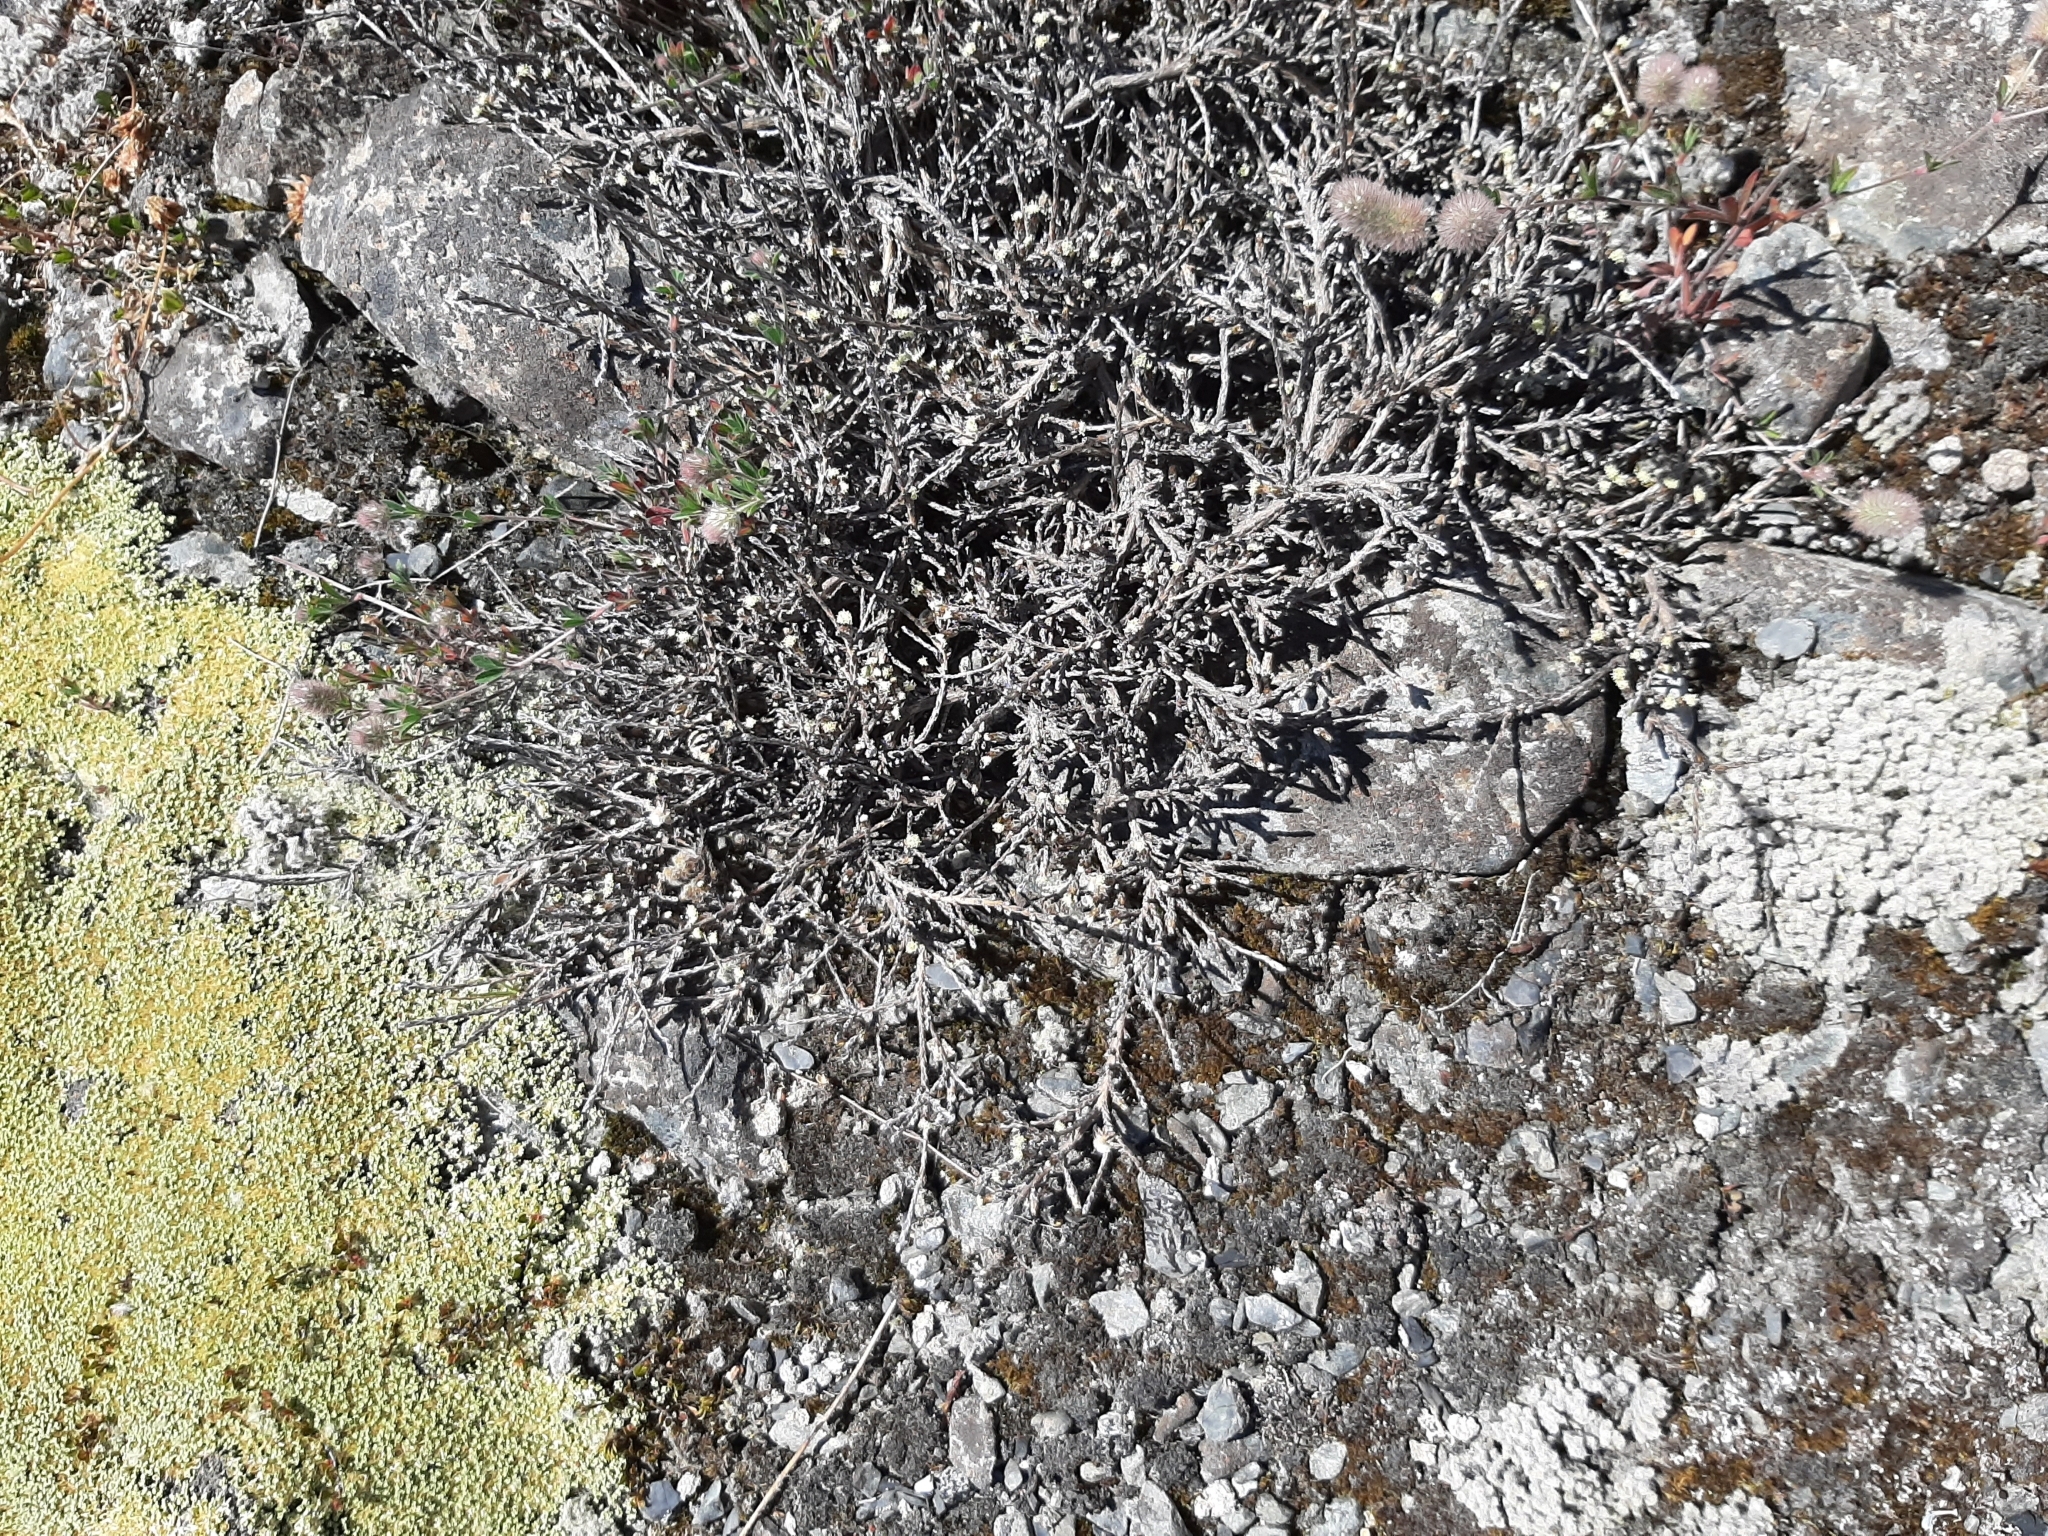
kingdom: Plantae
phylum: Tracheophyta
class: Magnoliopsida
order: Asterales
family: Asteraceae
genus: Ozothamnus
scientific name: Ozothamnus depressus
